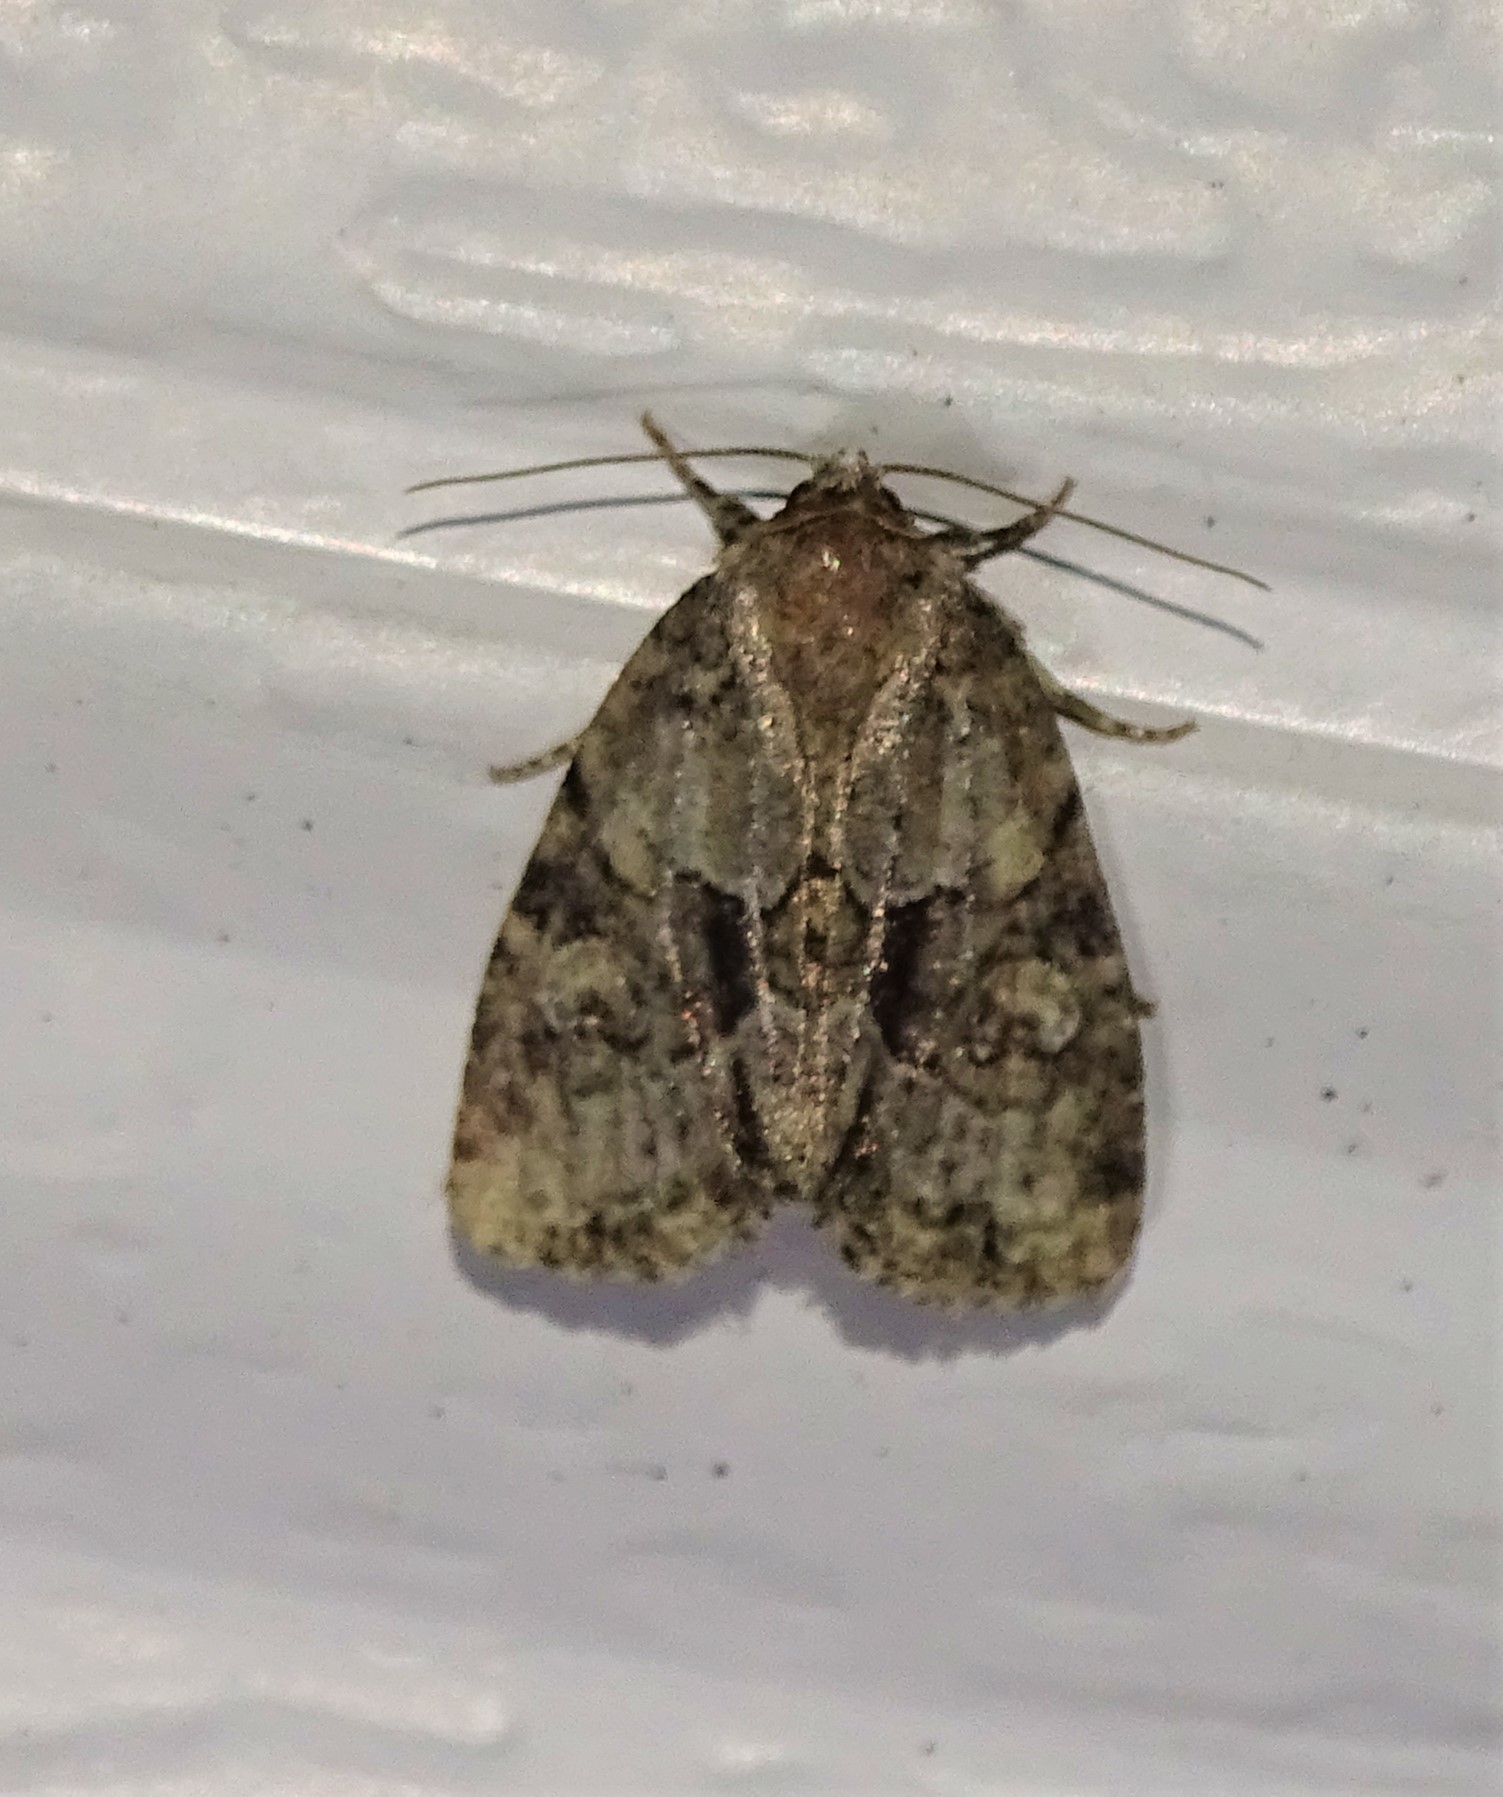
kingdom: Animalia
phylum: Arthropoda
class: Insecta
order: Lepidoptera
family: Noctuidae
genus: Neoligia
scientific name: Neoligia exhausta
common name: Exhausted brocade
